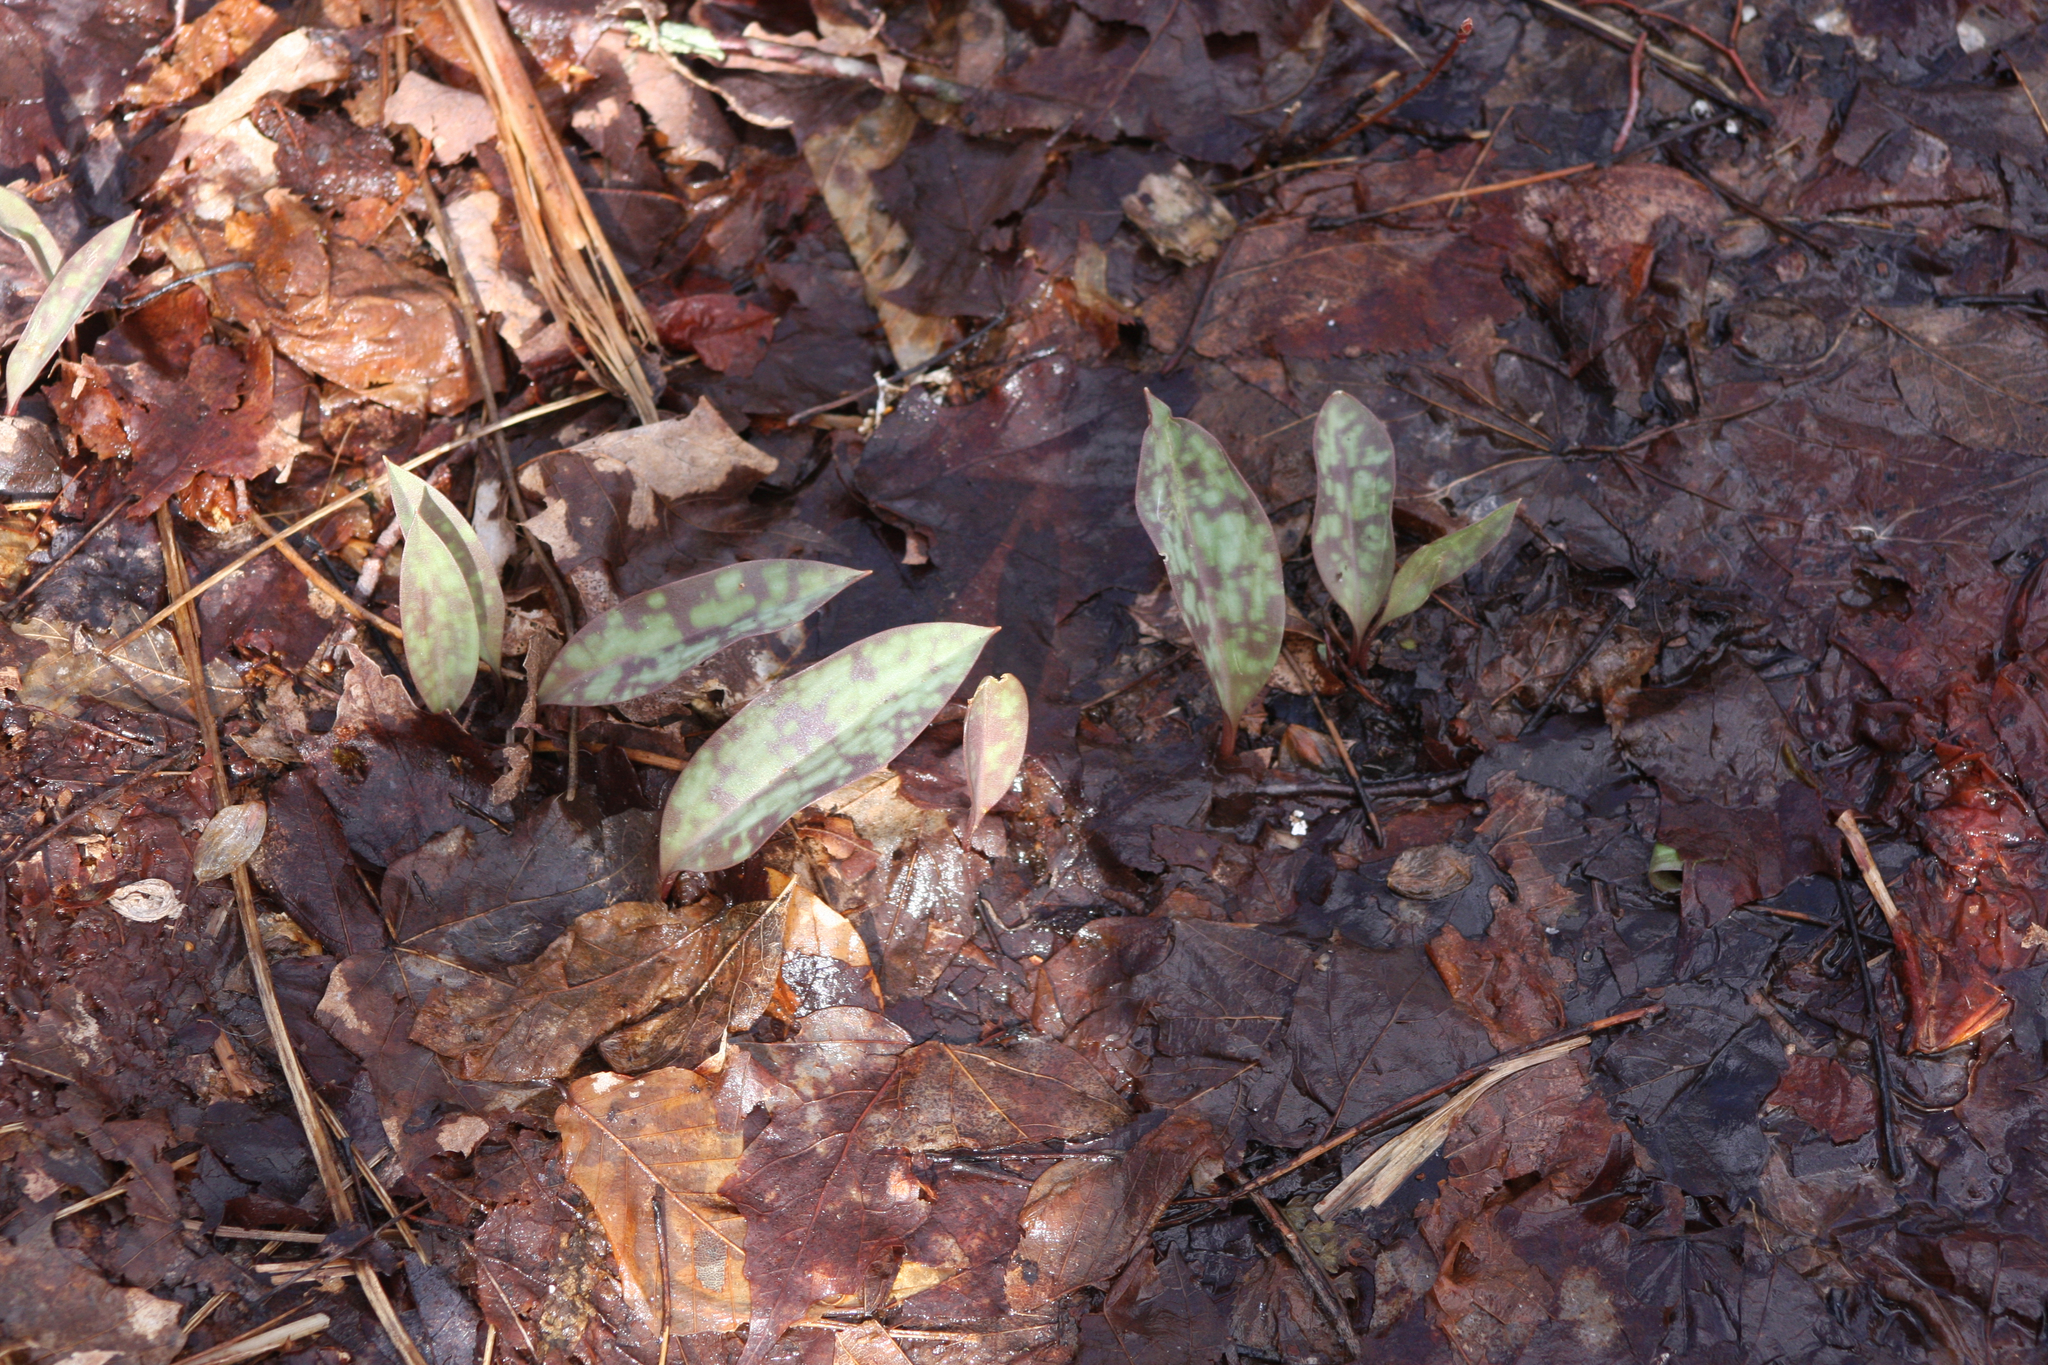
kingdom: Plantae
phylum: Tracheophyta
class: Liliopsida
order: Liliales
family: Liliaceae
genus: Erythronium
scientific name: Erythronium americanum
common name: Yellow adder's-tongue
